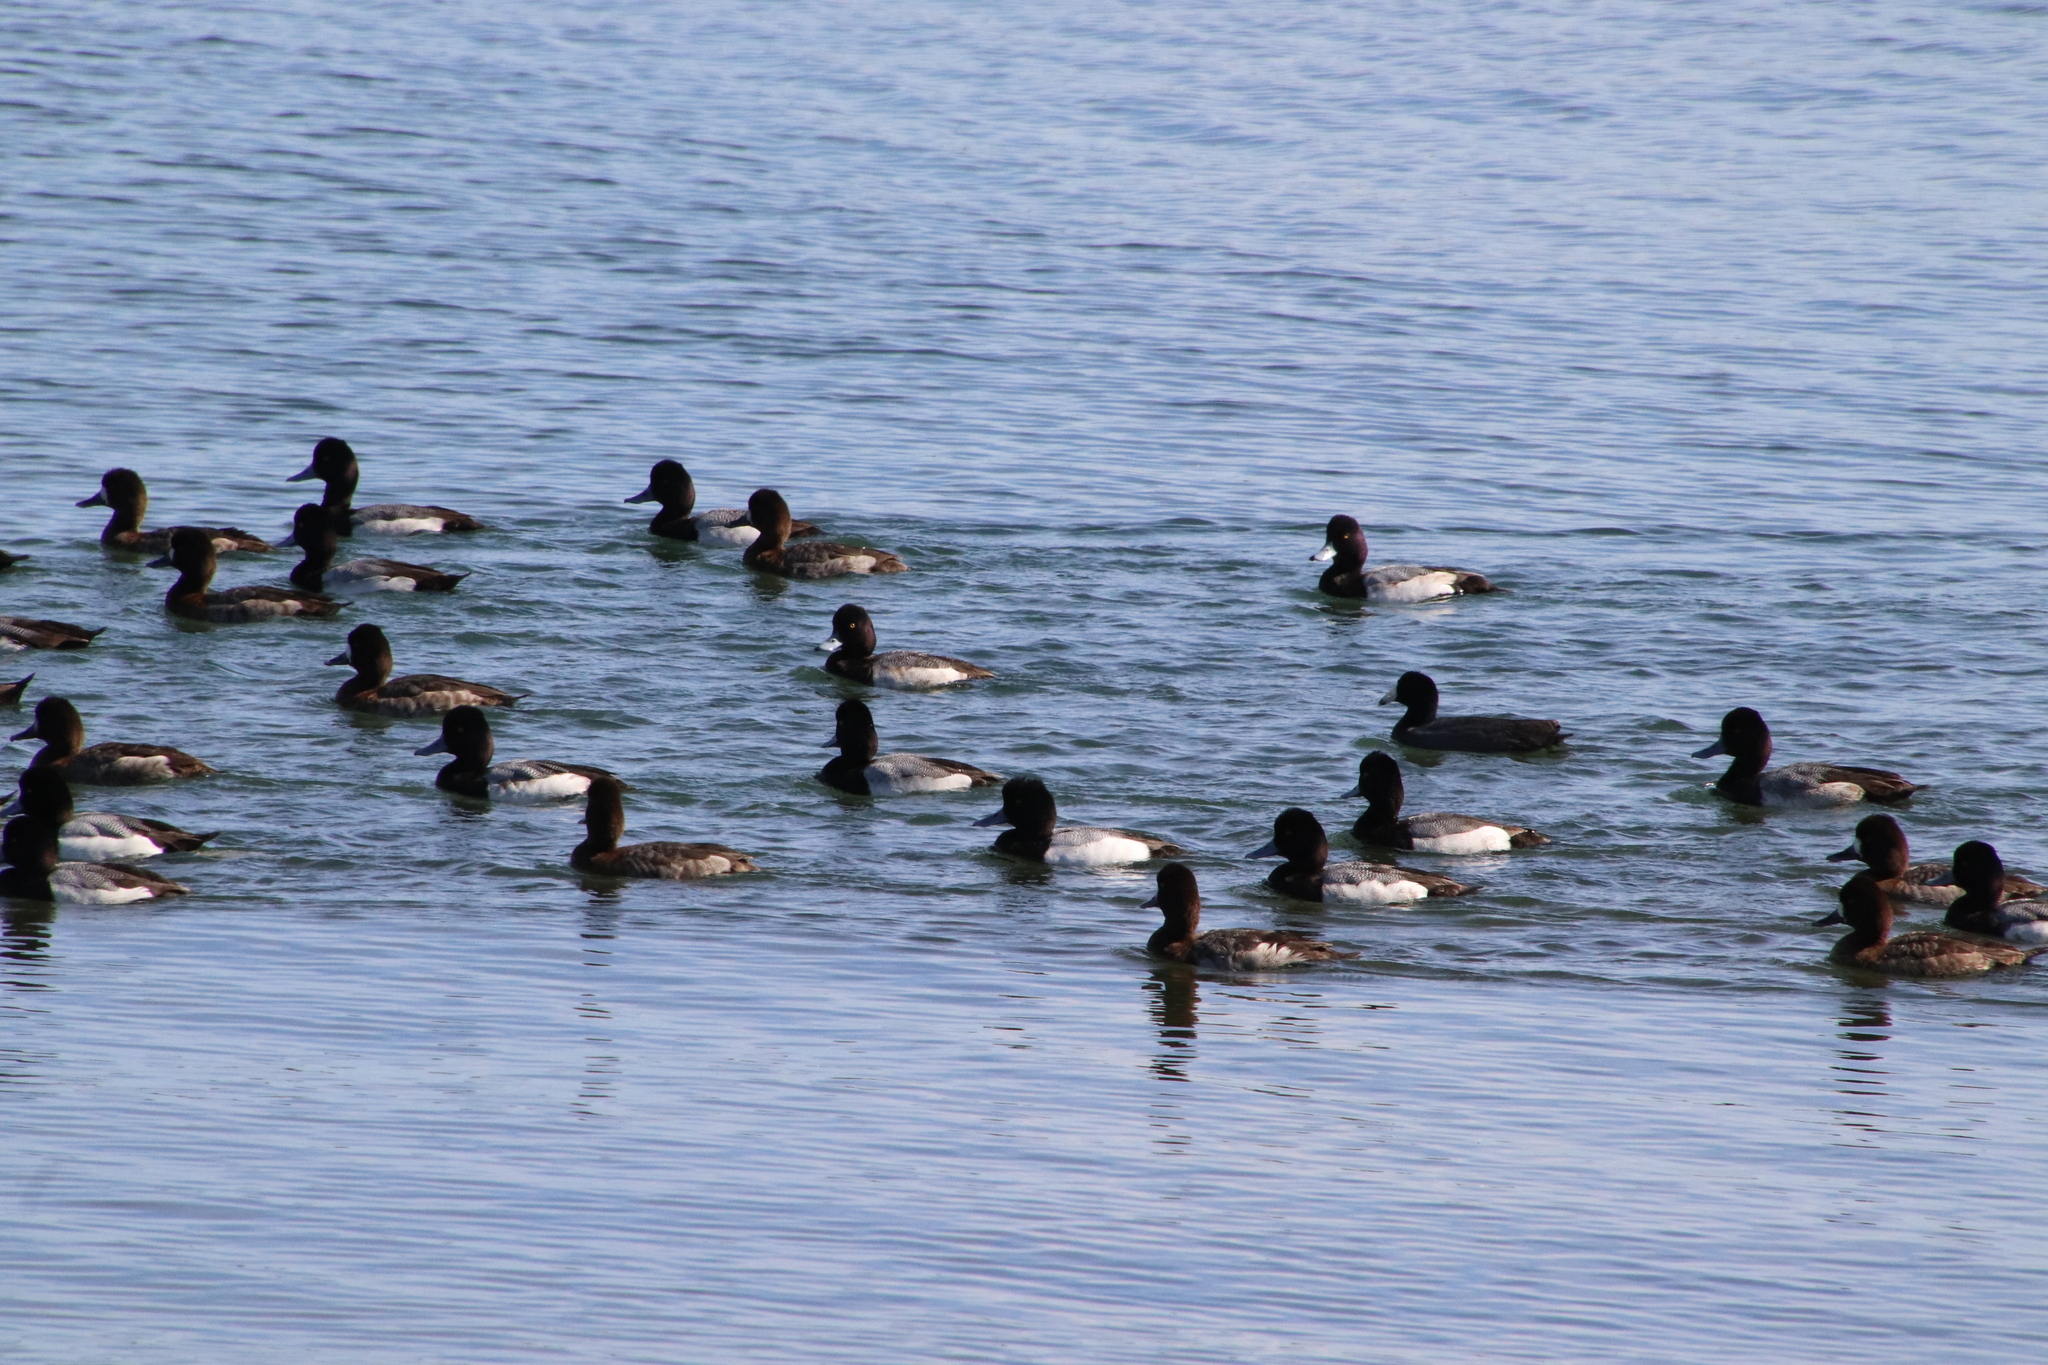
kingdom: Animalia
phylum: Chordata
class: Aves
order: Anseriformes
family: Anatidae
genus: Aythya
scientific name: Aythya affinis
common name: Lesser scaup
